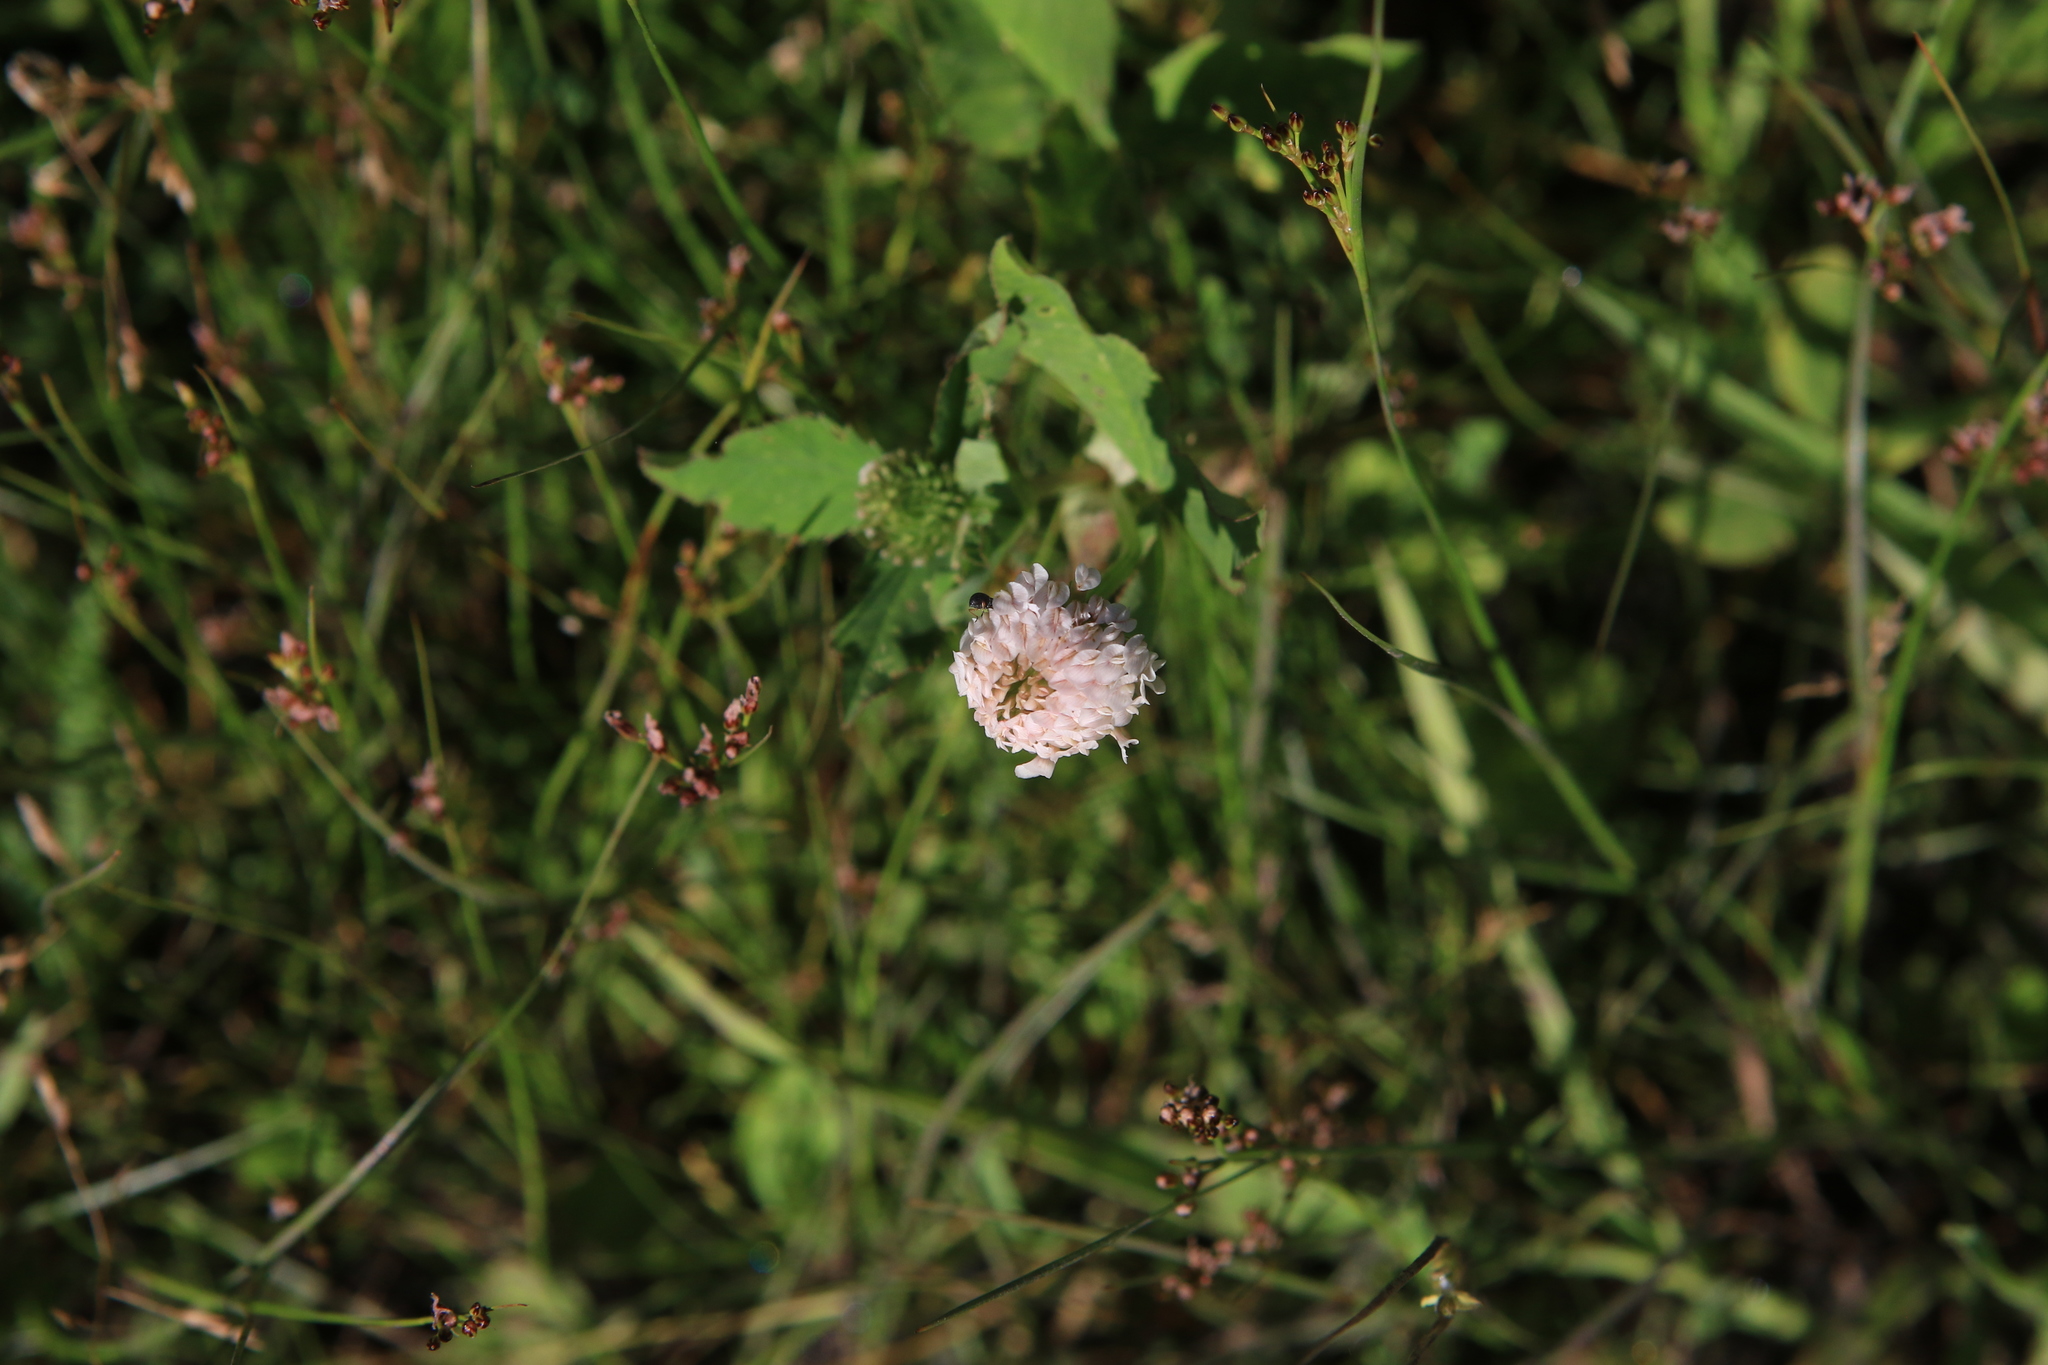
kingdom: Plantae
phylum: Tracheophyta
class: Magnoliopsida
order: Fabales
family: Fabaceae
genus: Trifolium
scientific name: Trifolium hybridum
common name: Alsike clover
